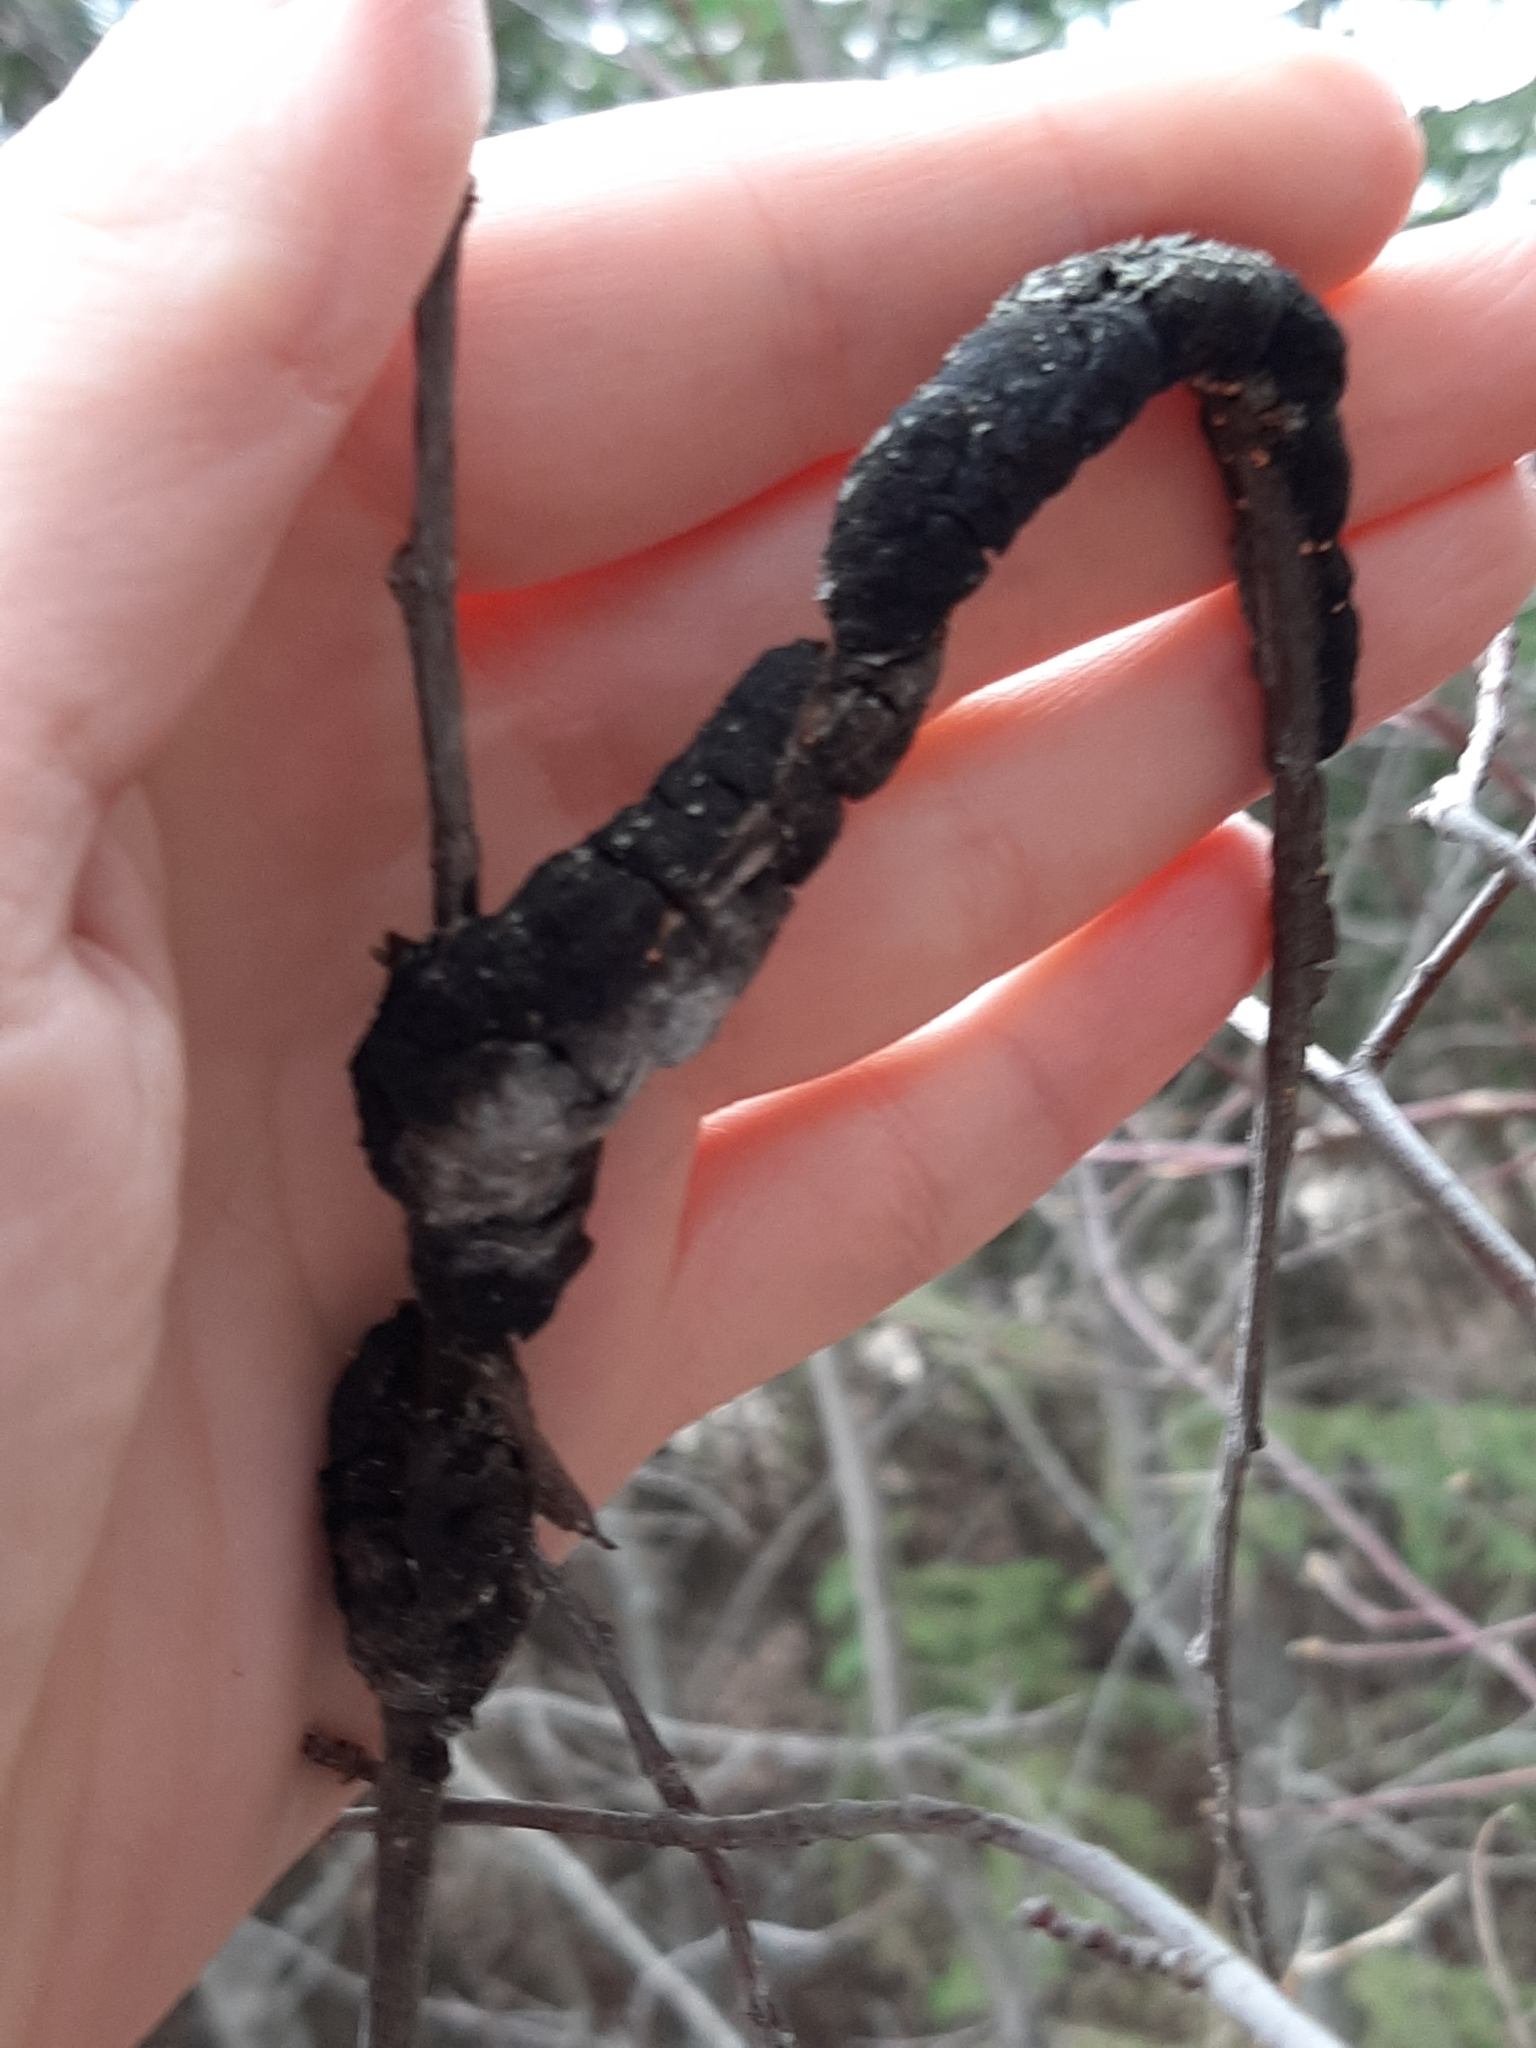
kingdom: Fungi
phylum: Ascomycota
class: Dothideomycetes
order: Venturiales
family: Venturiaceae
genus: Apiosporina
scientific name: Apiosporina morbosa
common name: Black knot
